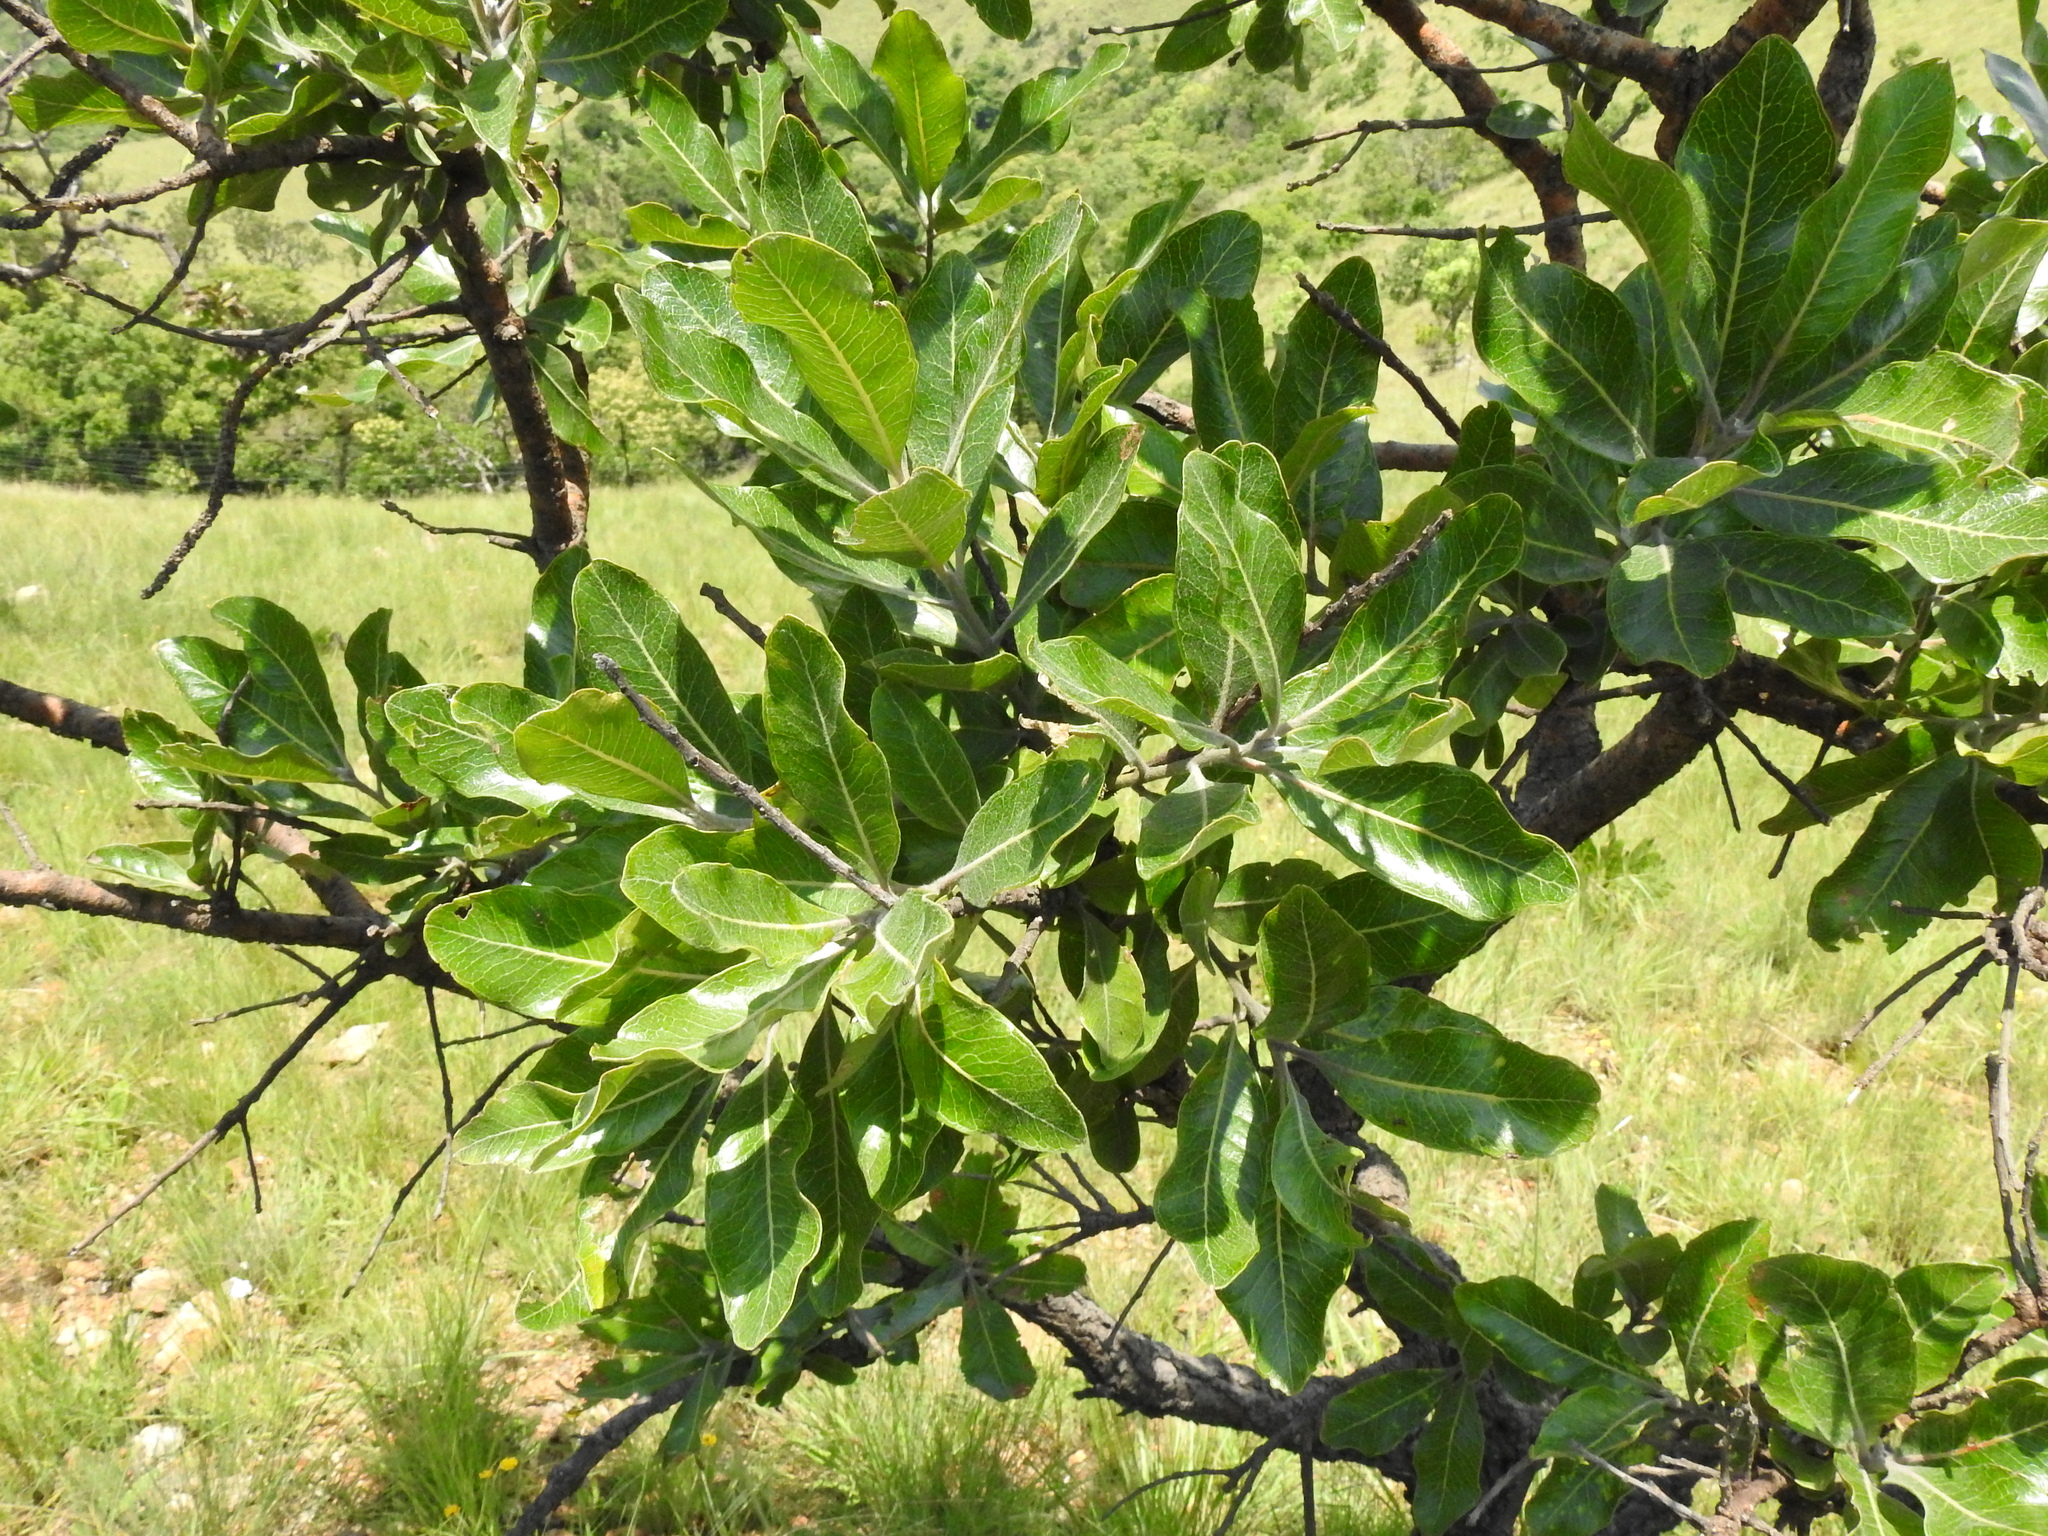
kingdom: Plantae
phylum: Tracheophyta
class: Magnoliopsida
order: Proteales
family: Proteaceae
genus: Faurea
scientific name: Faurea rochetiana
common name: Broad-leaved beech
